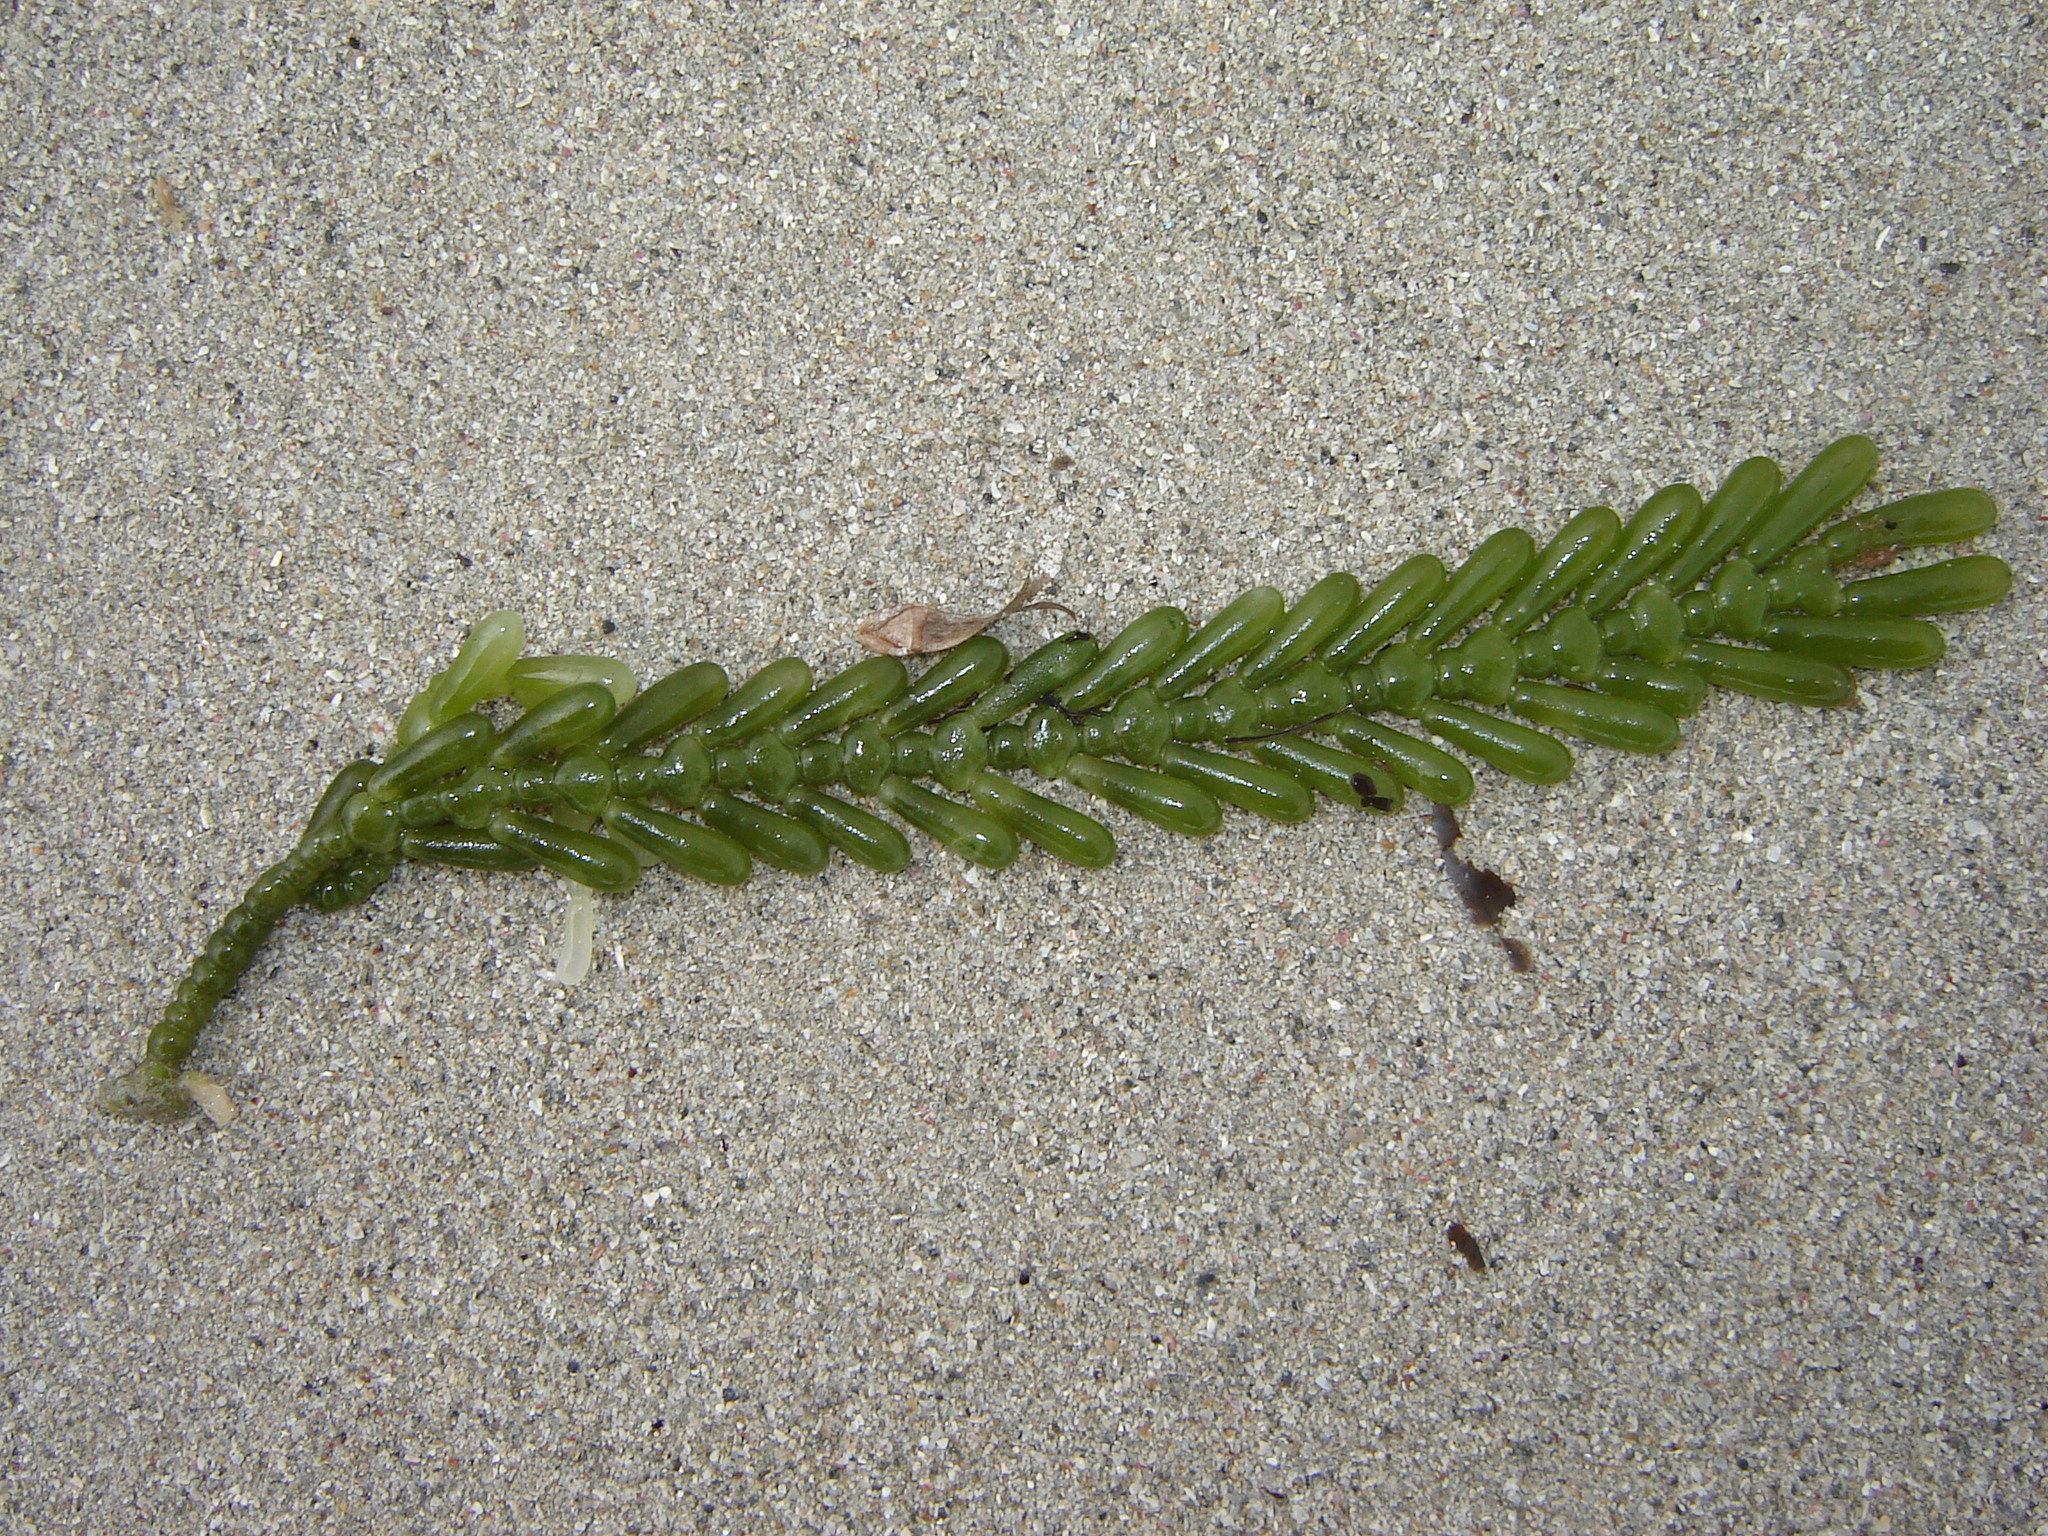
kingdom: Plantae
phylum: Chlorophyta
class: Ulvophyceae
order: Bryopsidales
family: Caulerpaceae
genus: Caulerpa
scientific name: Caulerpa cactoides
